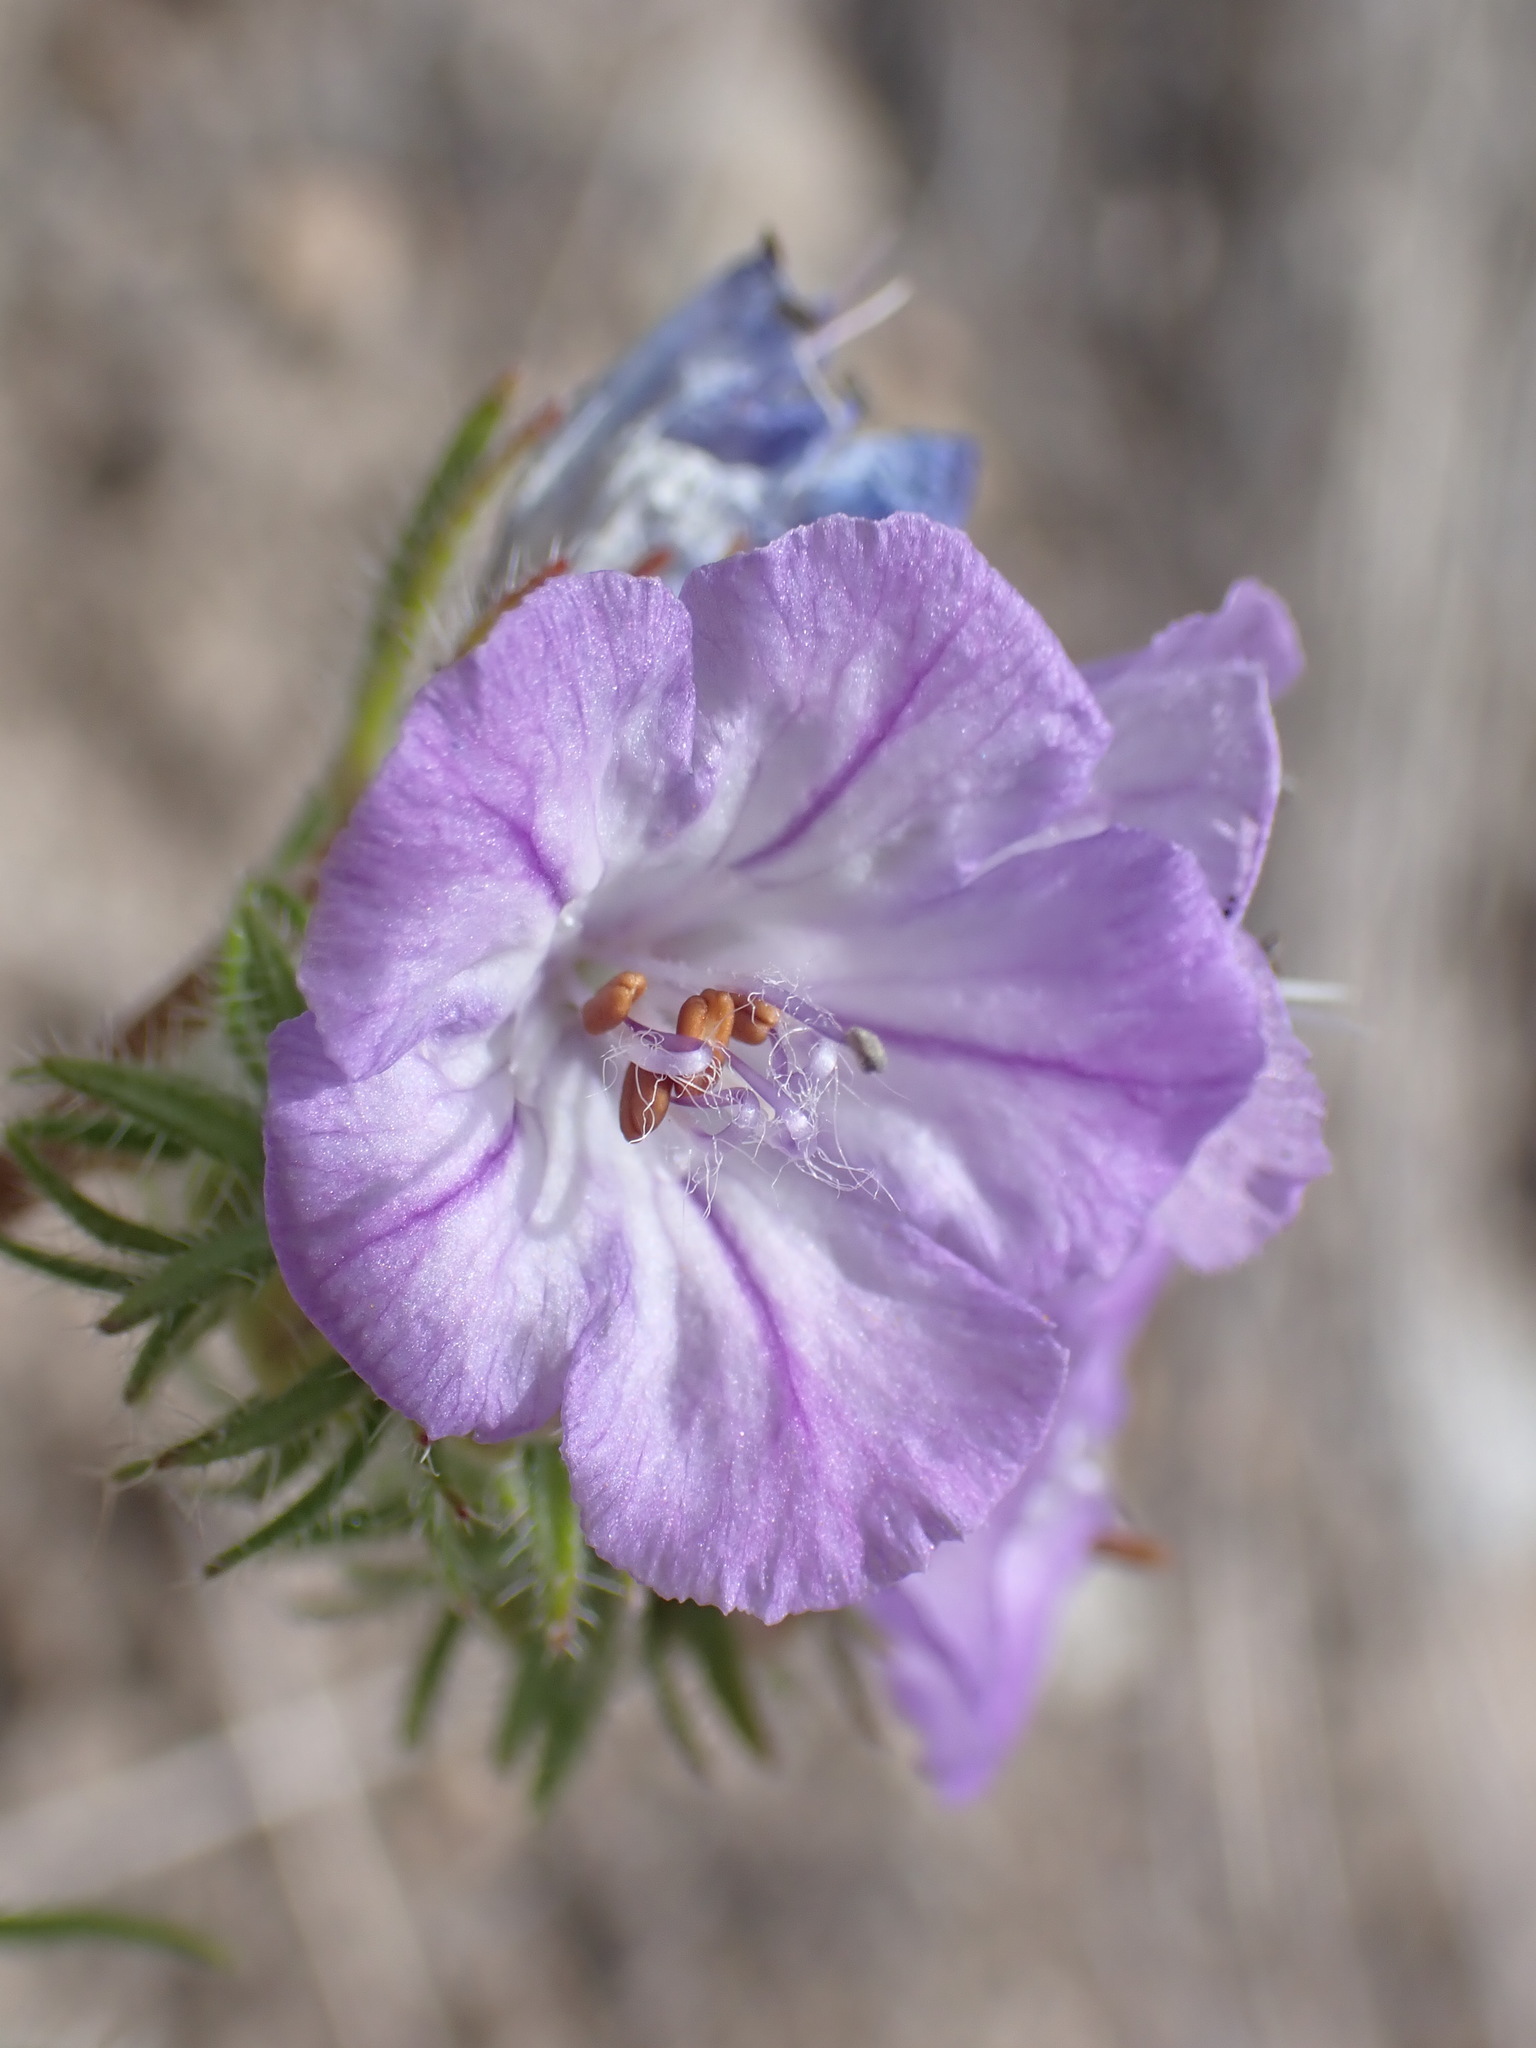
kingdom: Plantae
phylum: Tracheophyta
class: Magnoliopsida
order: Boraginales
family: Hydrophyllaceae
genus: Phacelia
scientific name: Phacelia linearis
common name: Linear-leaved phacelia
